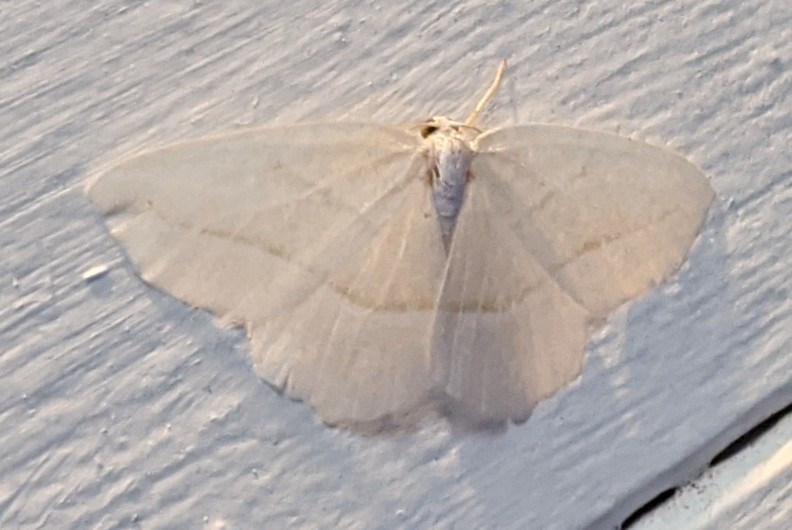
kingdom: Animalia
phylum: Arthropoda
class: Insecta
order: Lepidoptera
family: Geometridae
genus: Campaea
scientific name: Campaea perlata
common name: Fringed looper
